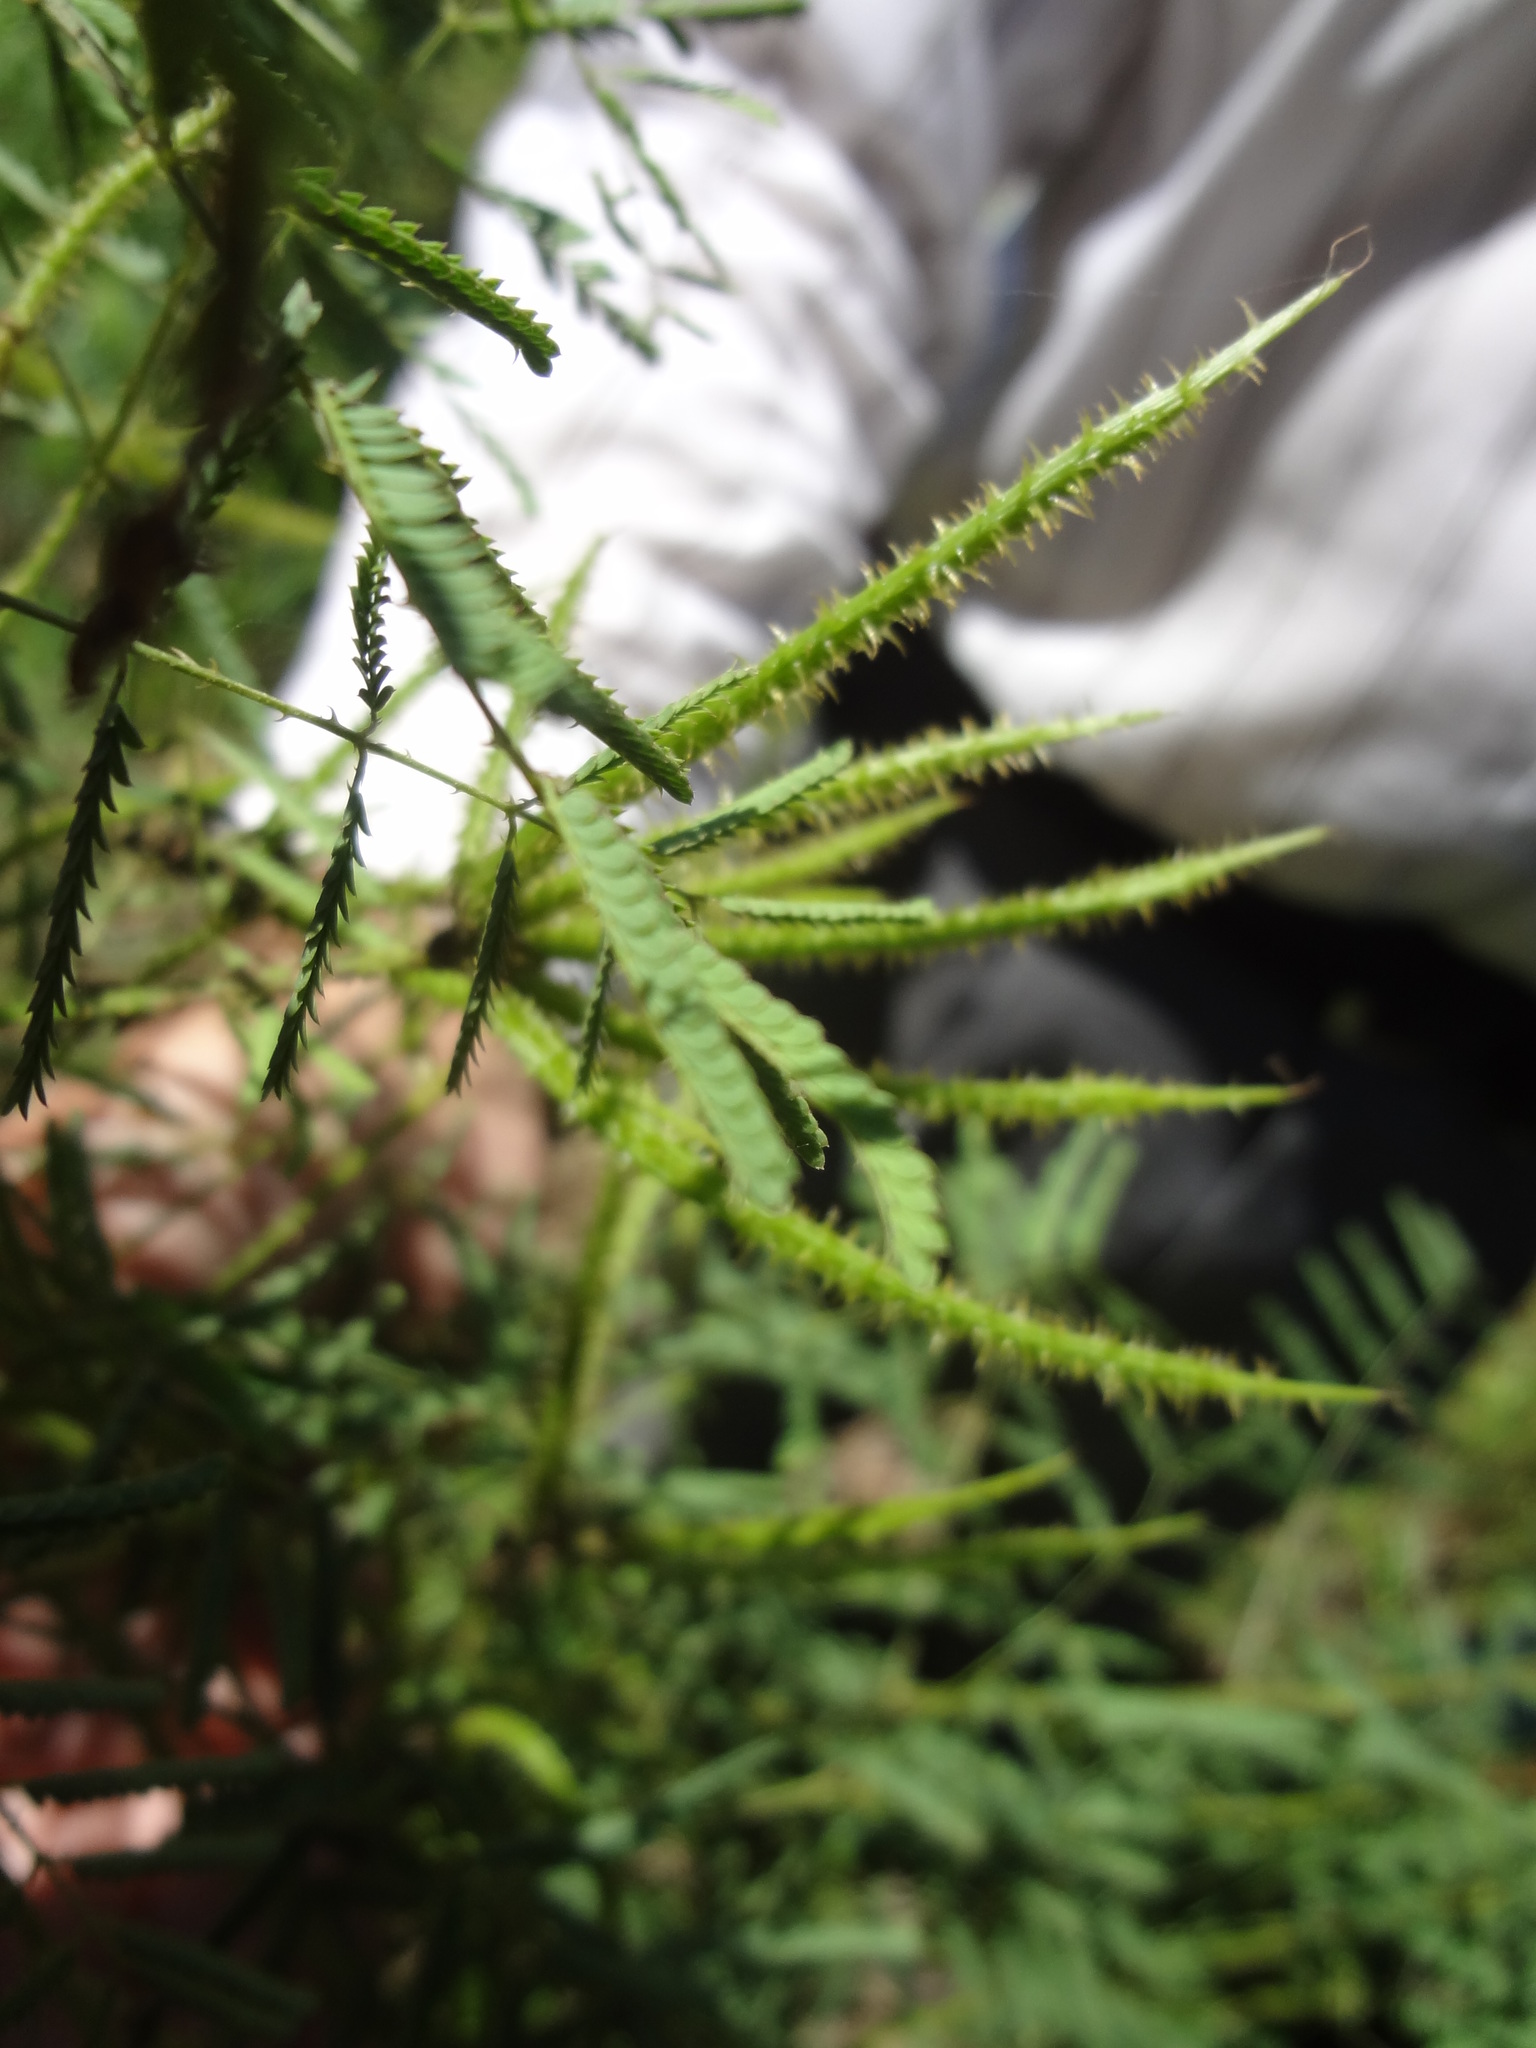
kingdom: Plantae
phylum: Tracheophyta
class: Magnoliopsida
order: Fabales
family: Fabaceae
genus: Mimosa
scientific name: Mimosa quadrivalvis
